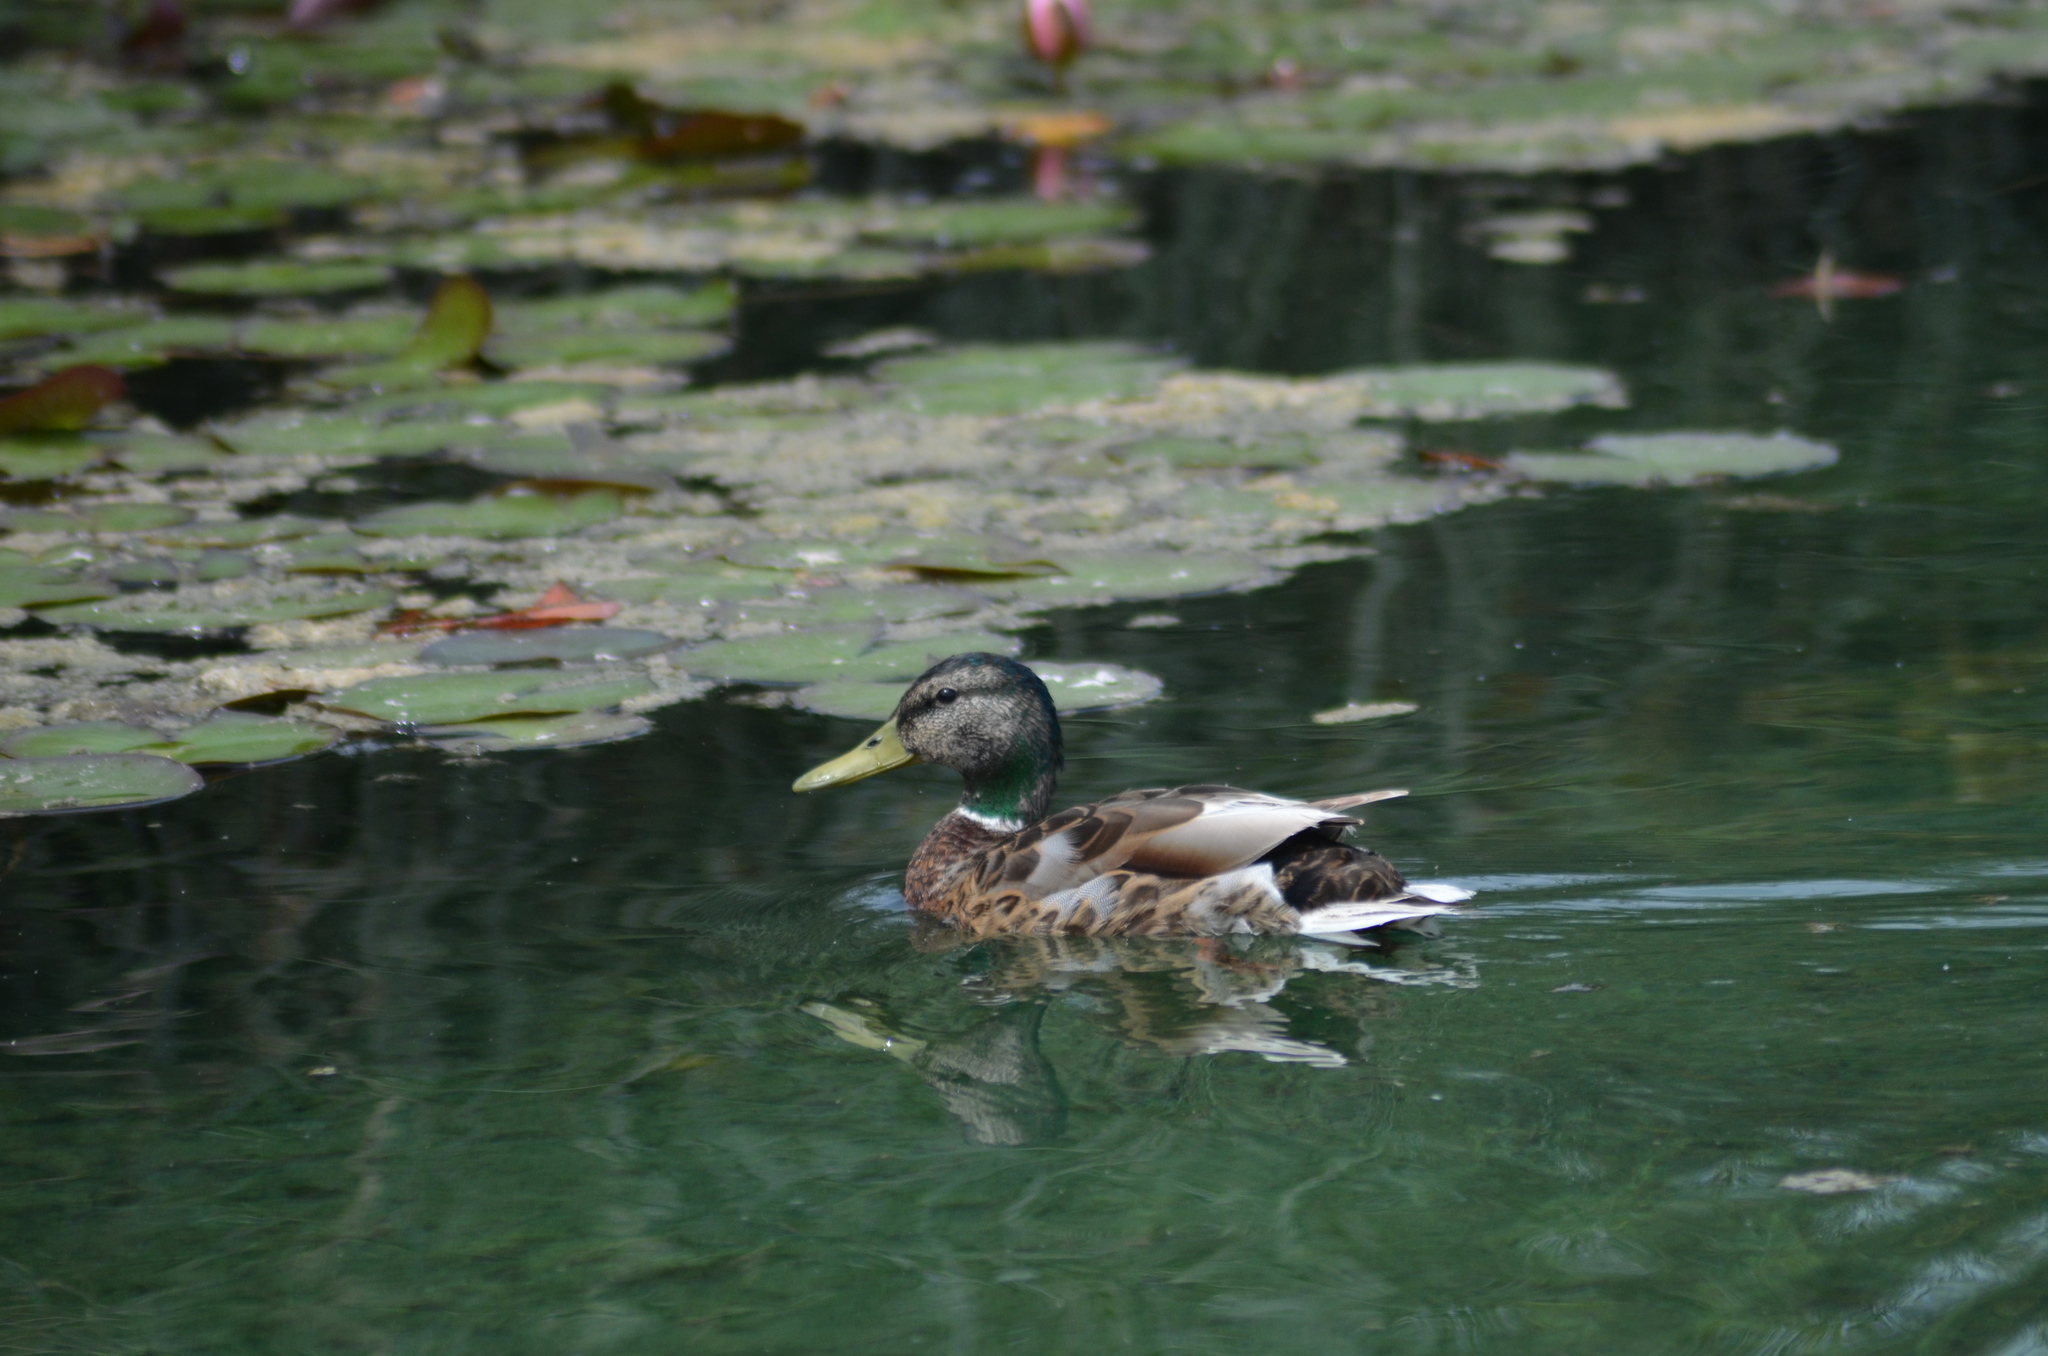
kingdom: Animalia
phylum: Chordata
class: Aves
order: Anseriformes
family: Anatidae
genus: Anas
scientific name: Anas platyrhynchos
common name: Mallard
